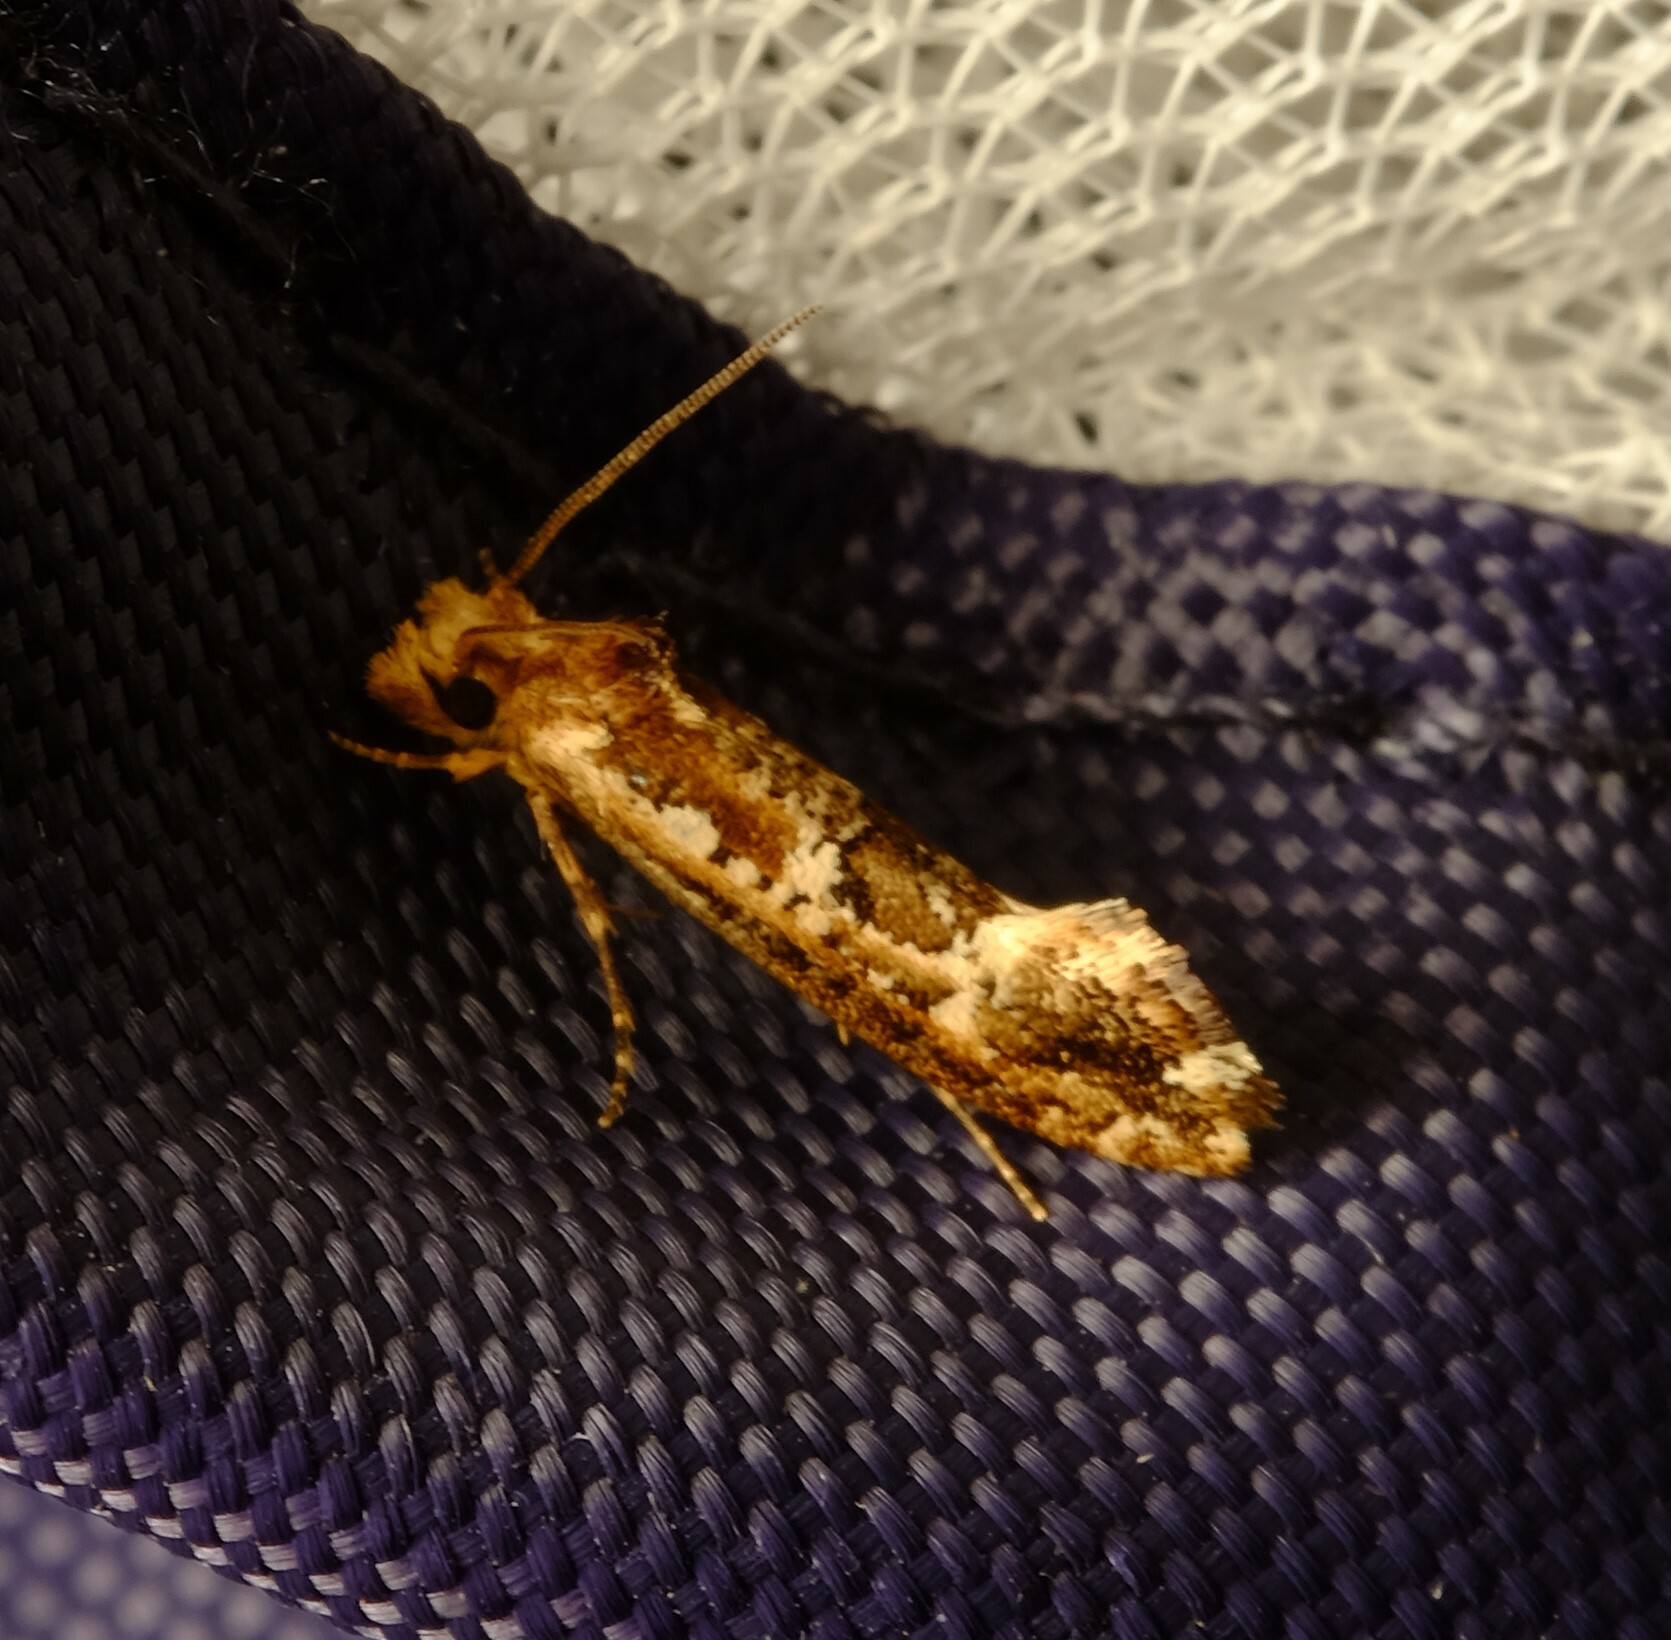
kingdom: Animalia
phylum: Arthropoda
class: Insecta
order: Lepidoptera
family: Tineidae
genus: Moerarchis
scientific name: Moerarchis inconcisella
